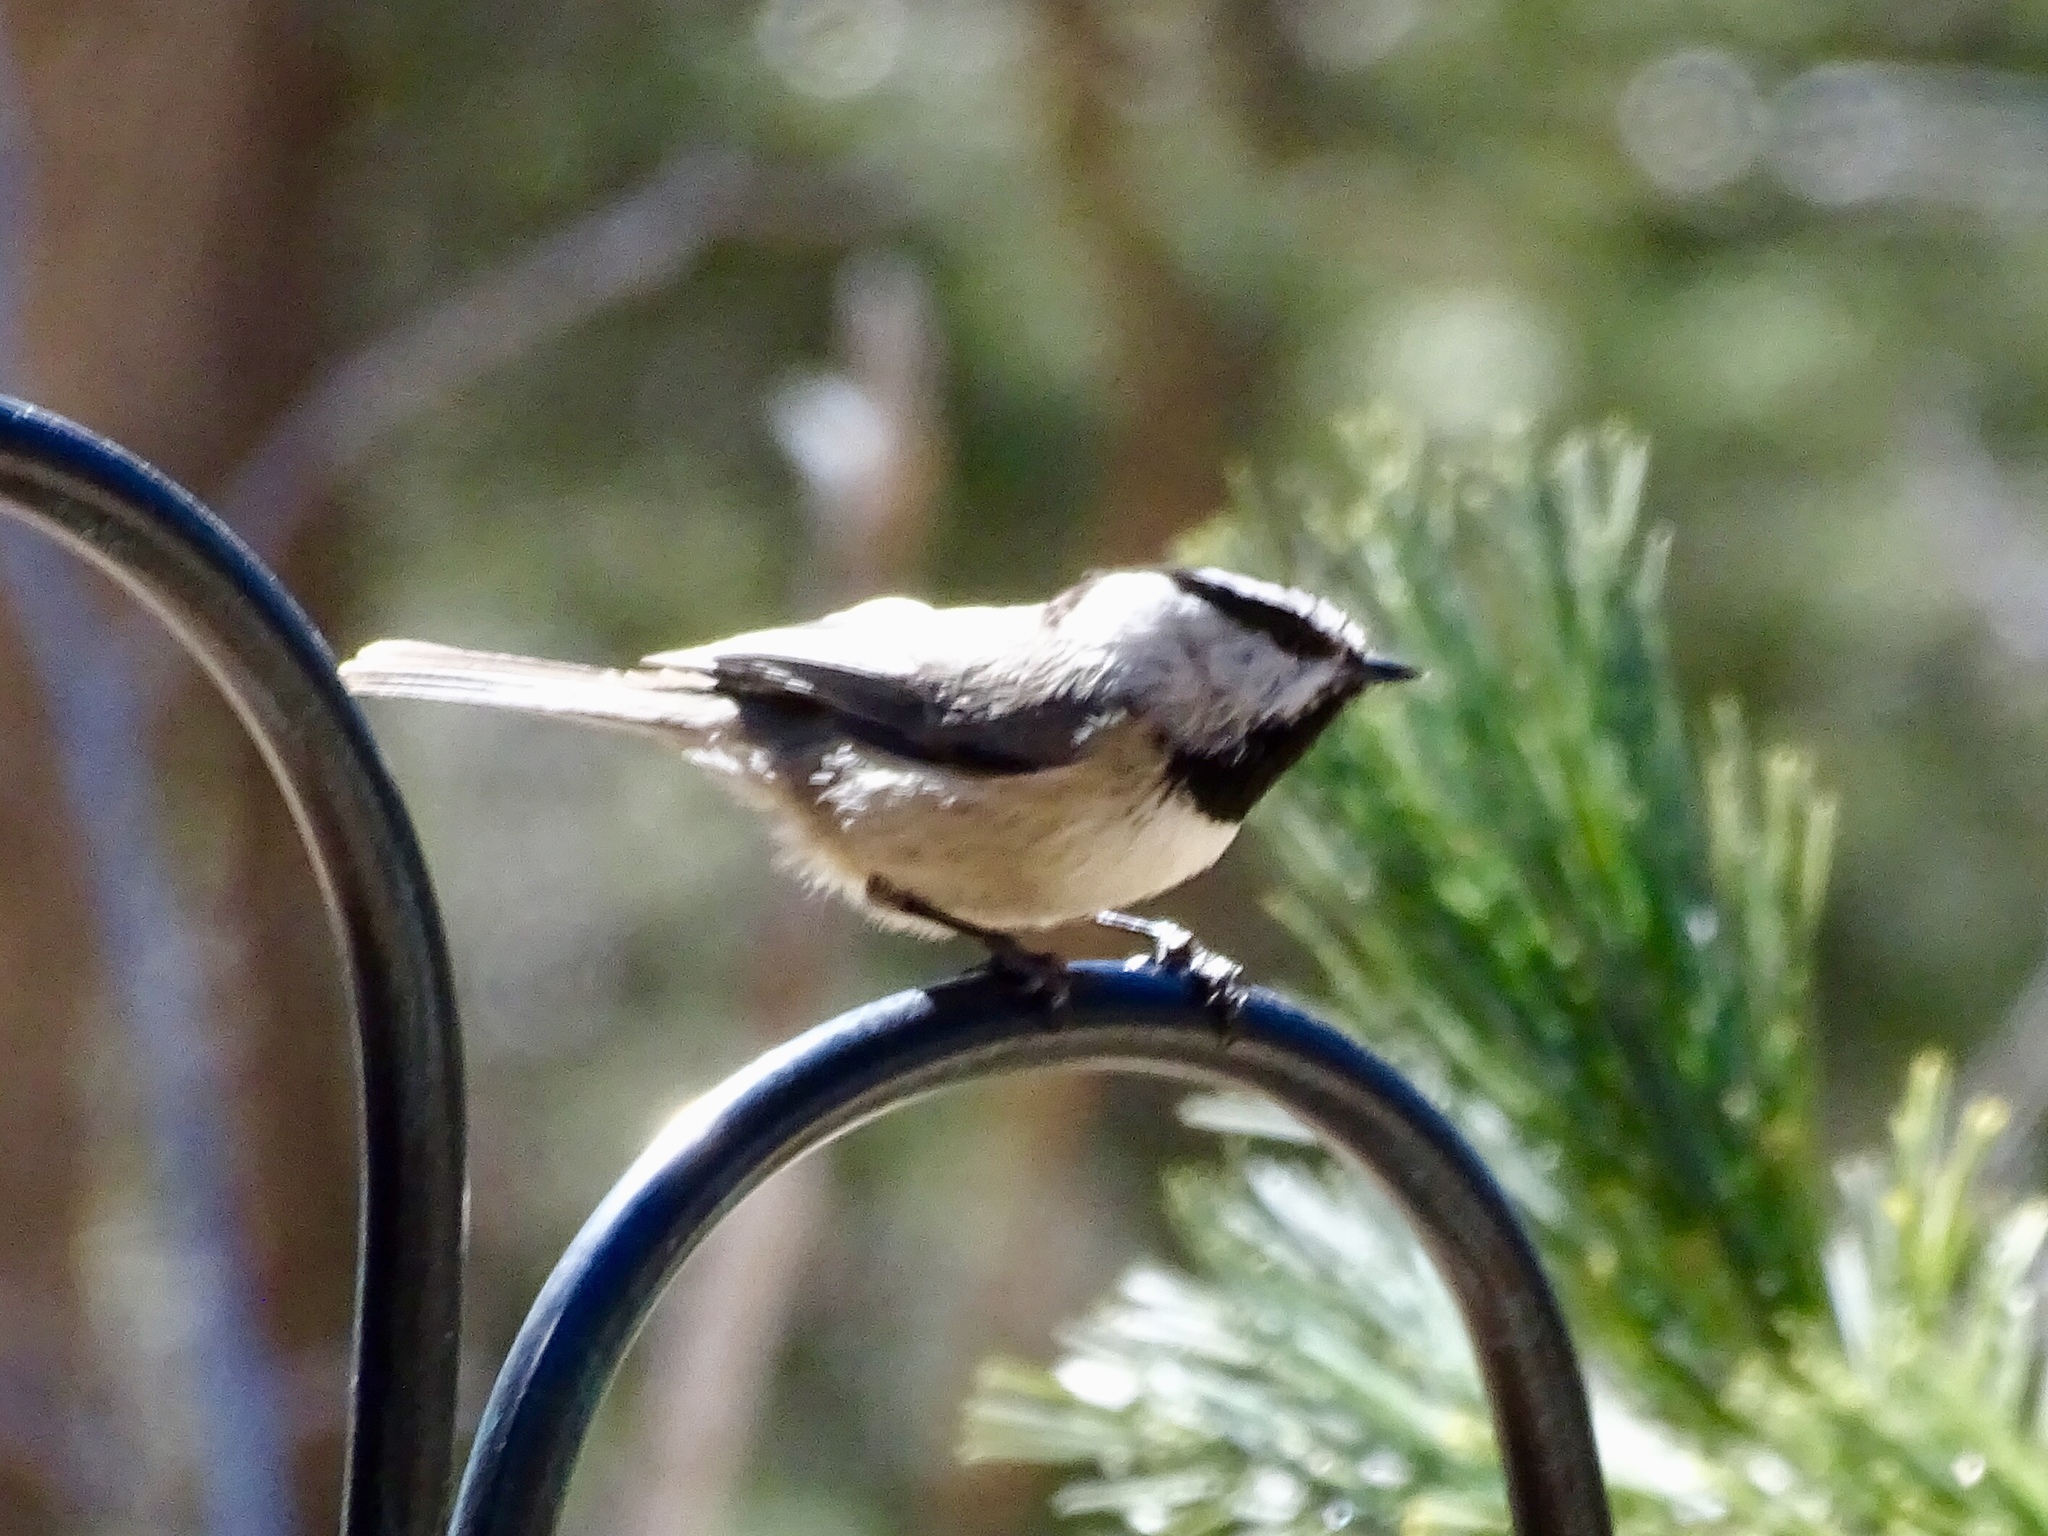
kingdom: Animalia
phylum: Chordata
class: Aves
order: Passeriformes
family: Paridae
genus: Poecile
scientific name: Poecile gambeli
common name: Mountain chickadee
